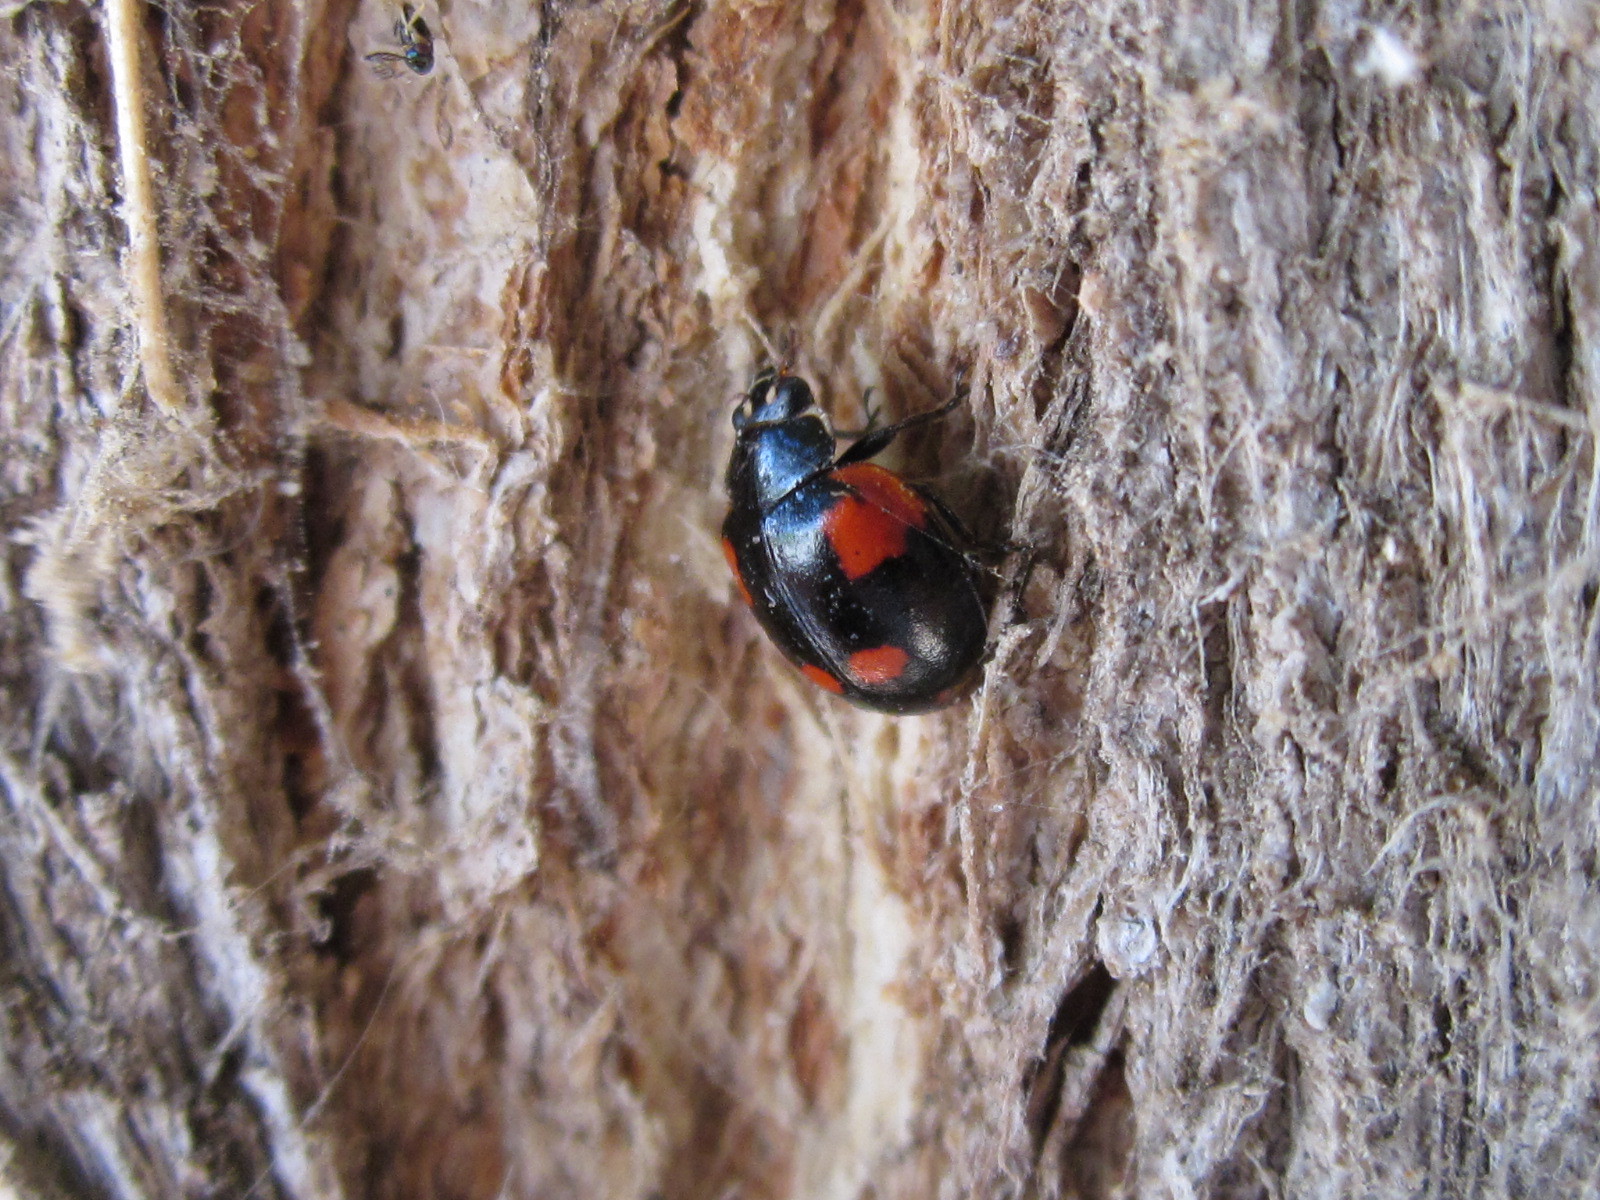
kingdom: Animalia
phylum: Arthropoda
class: Insecta
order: Coleoptera
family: Coccinellidae
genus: Adalia
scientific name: Adalia bipunctata
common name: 2-spot ladybird
